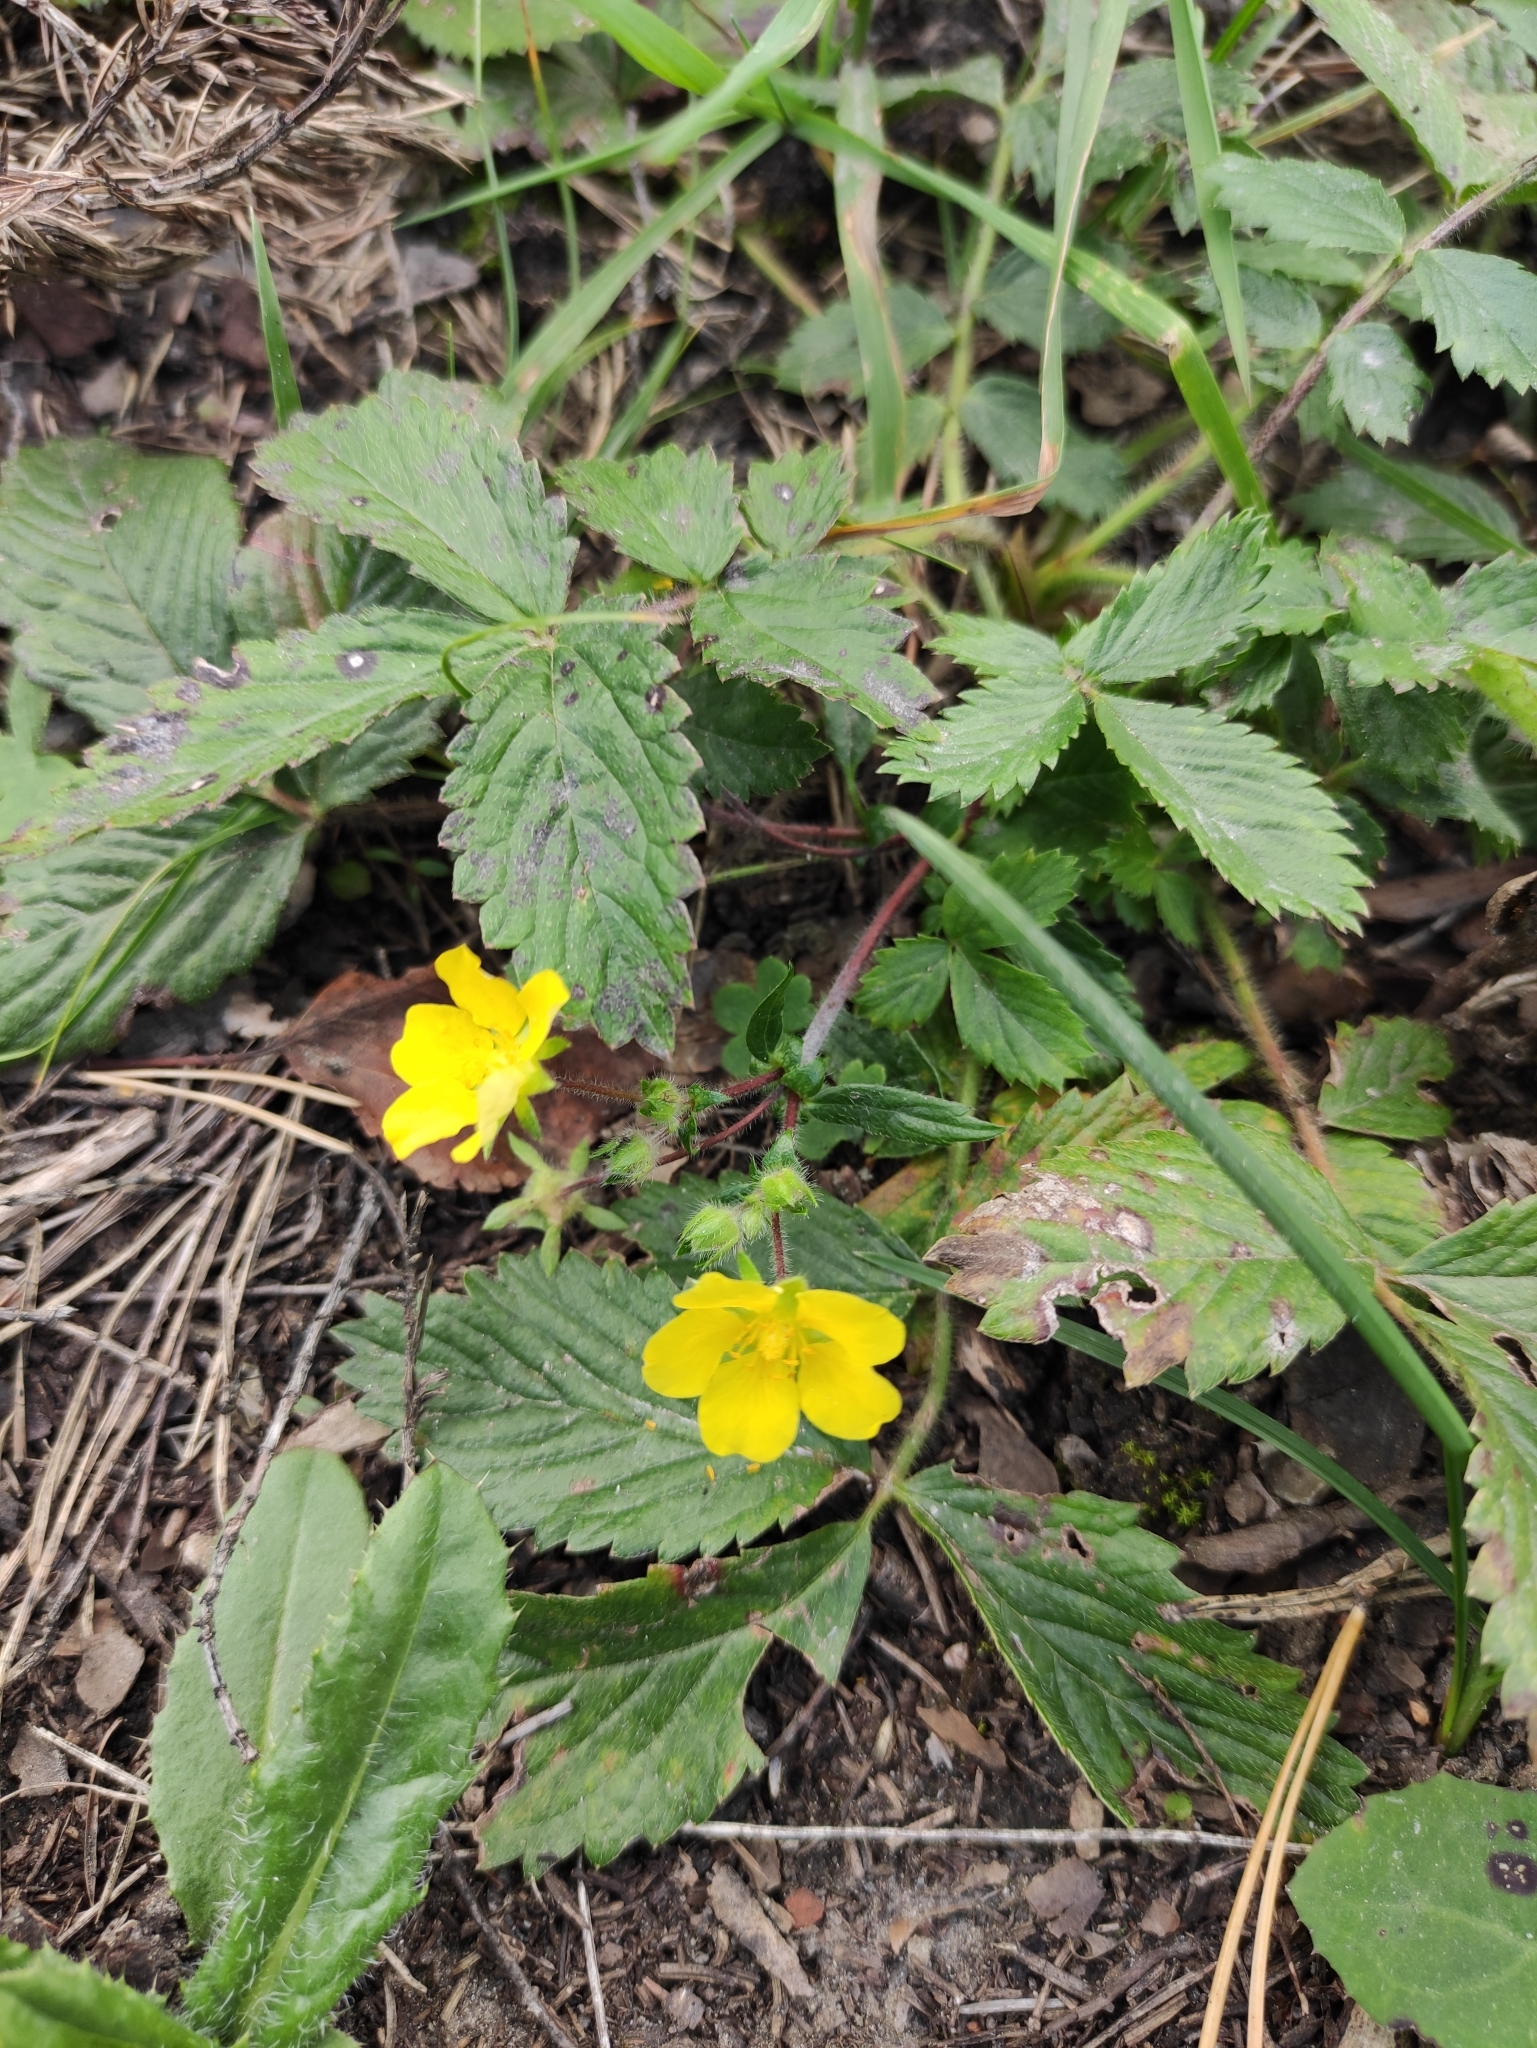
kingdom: Plantae
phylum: Tracheophyta
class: Magnoliopsida
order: Rosales
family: Rosaceae
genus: Potentilla
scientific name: Potentilla fragarioides
